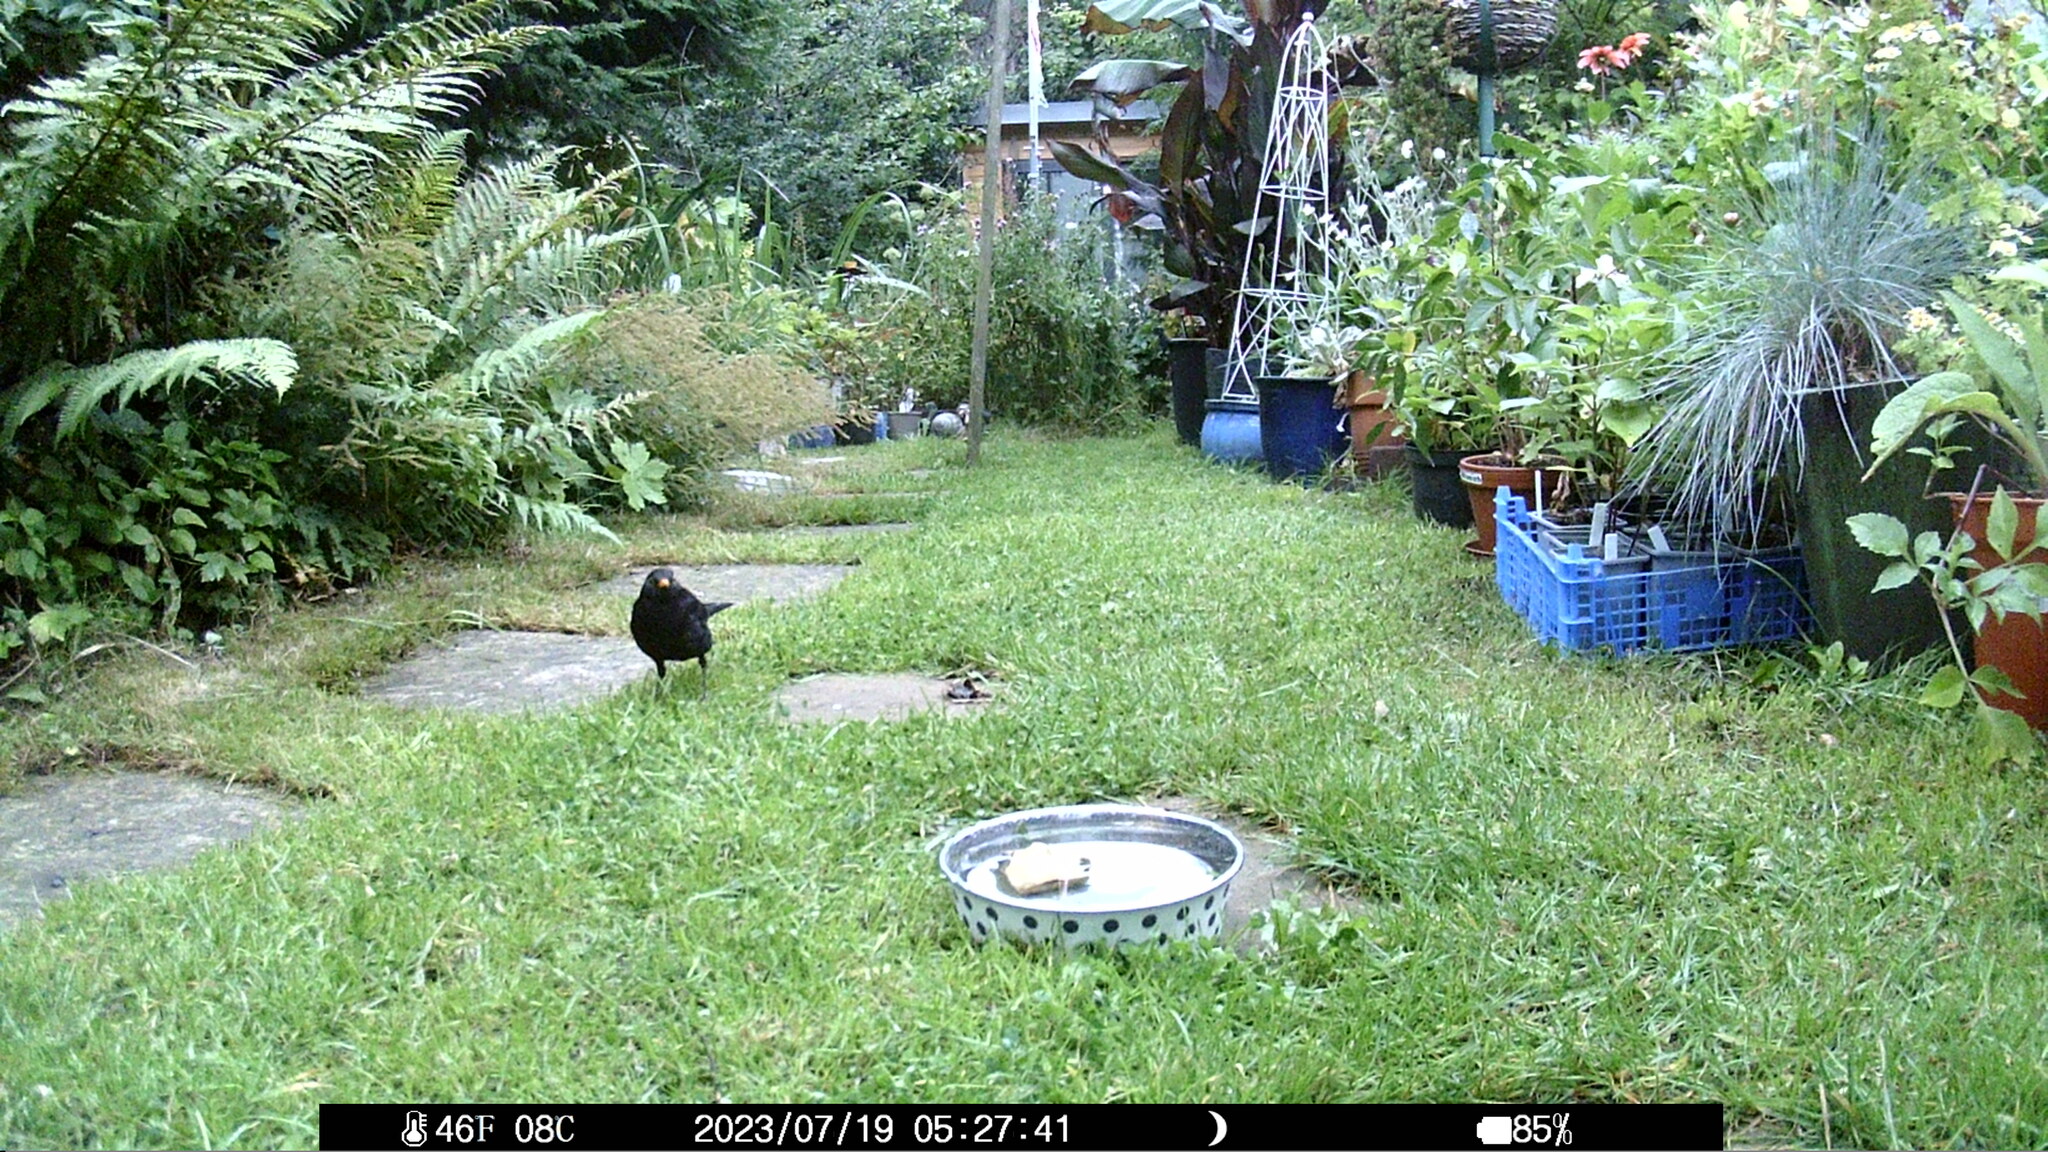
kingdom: Animalia
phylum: Chordata
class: Aves
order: Passeriformes
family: Turdidae
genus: Turdus
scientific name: Turdus merula
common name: Common blackbird
